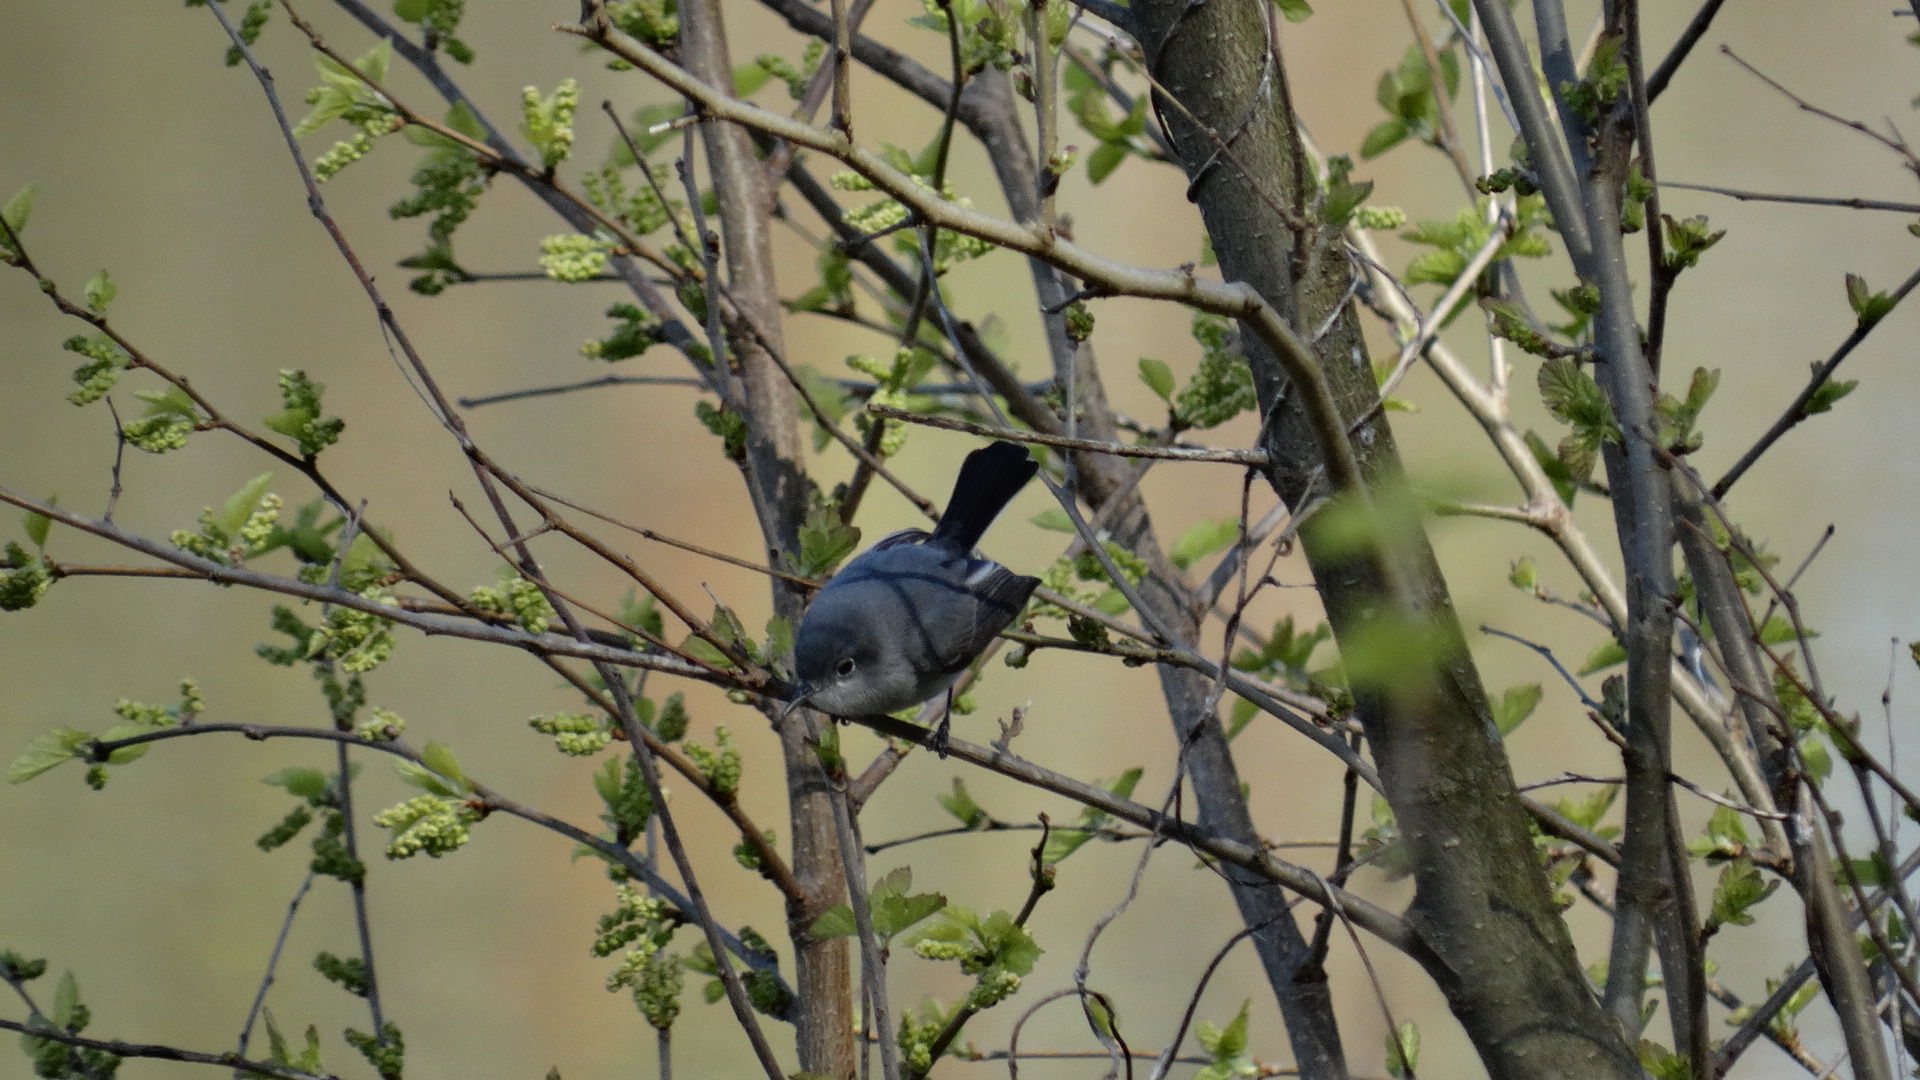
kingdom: Animalia
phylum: Chordata
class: Aves
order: Passeriformes
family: Polioptilidae
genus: Polioptila
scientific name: Polioptila caerulea
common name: Blue-gray gnatcatcher
